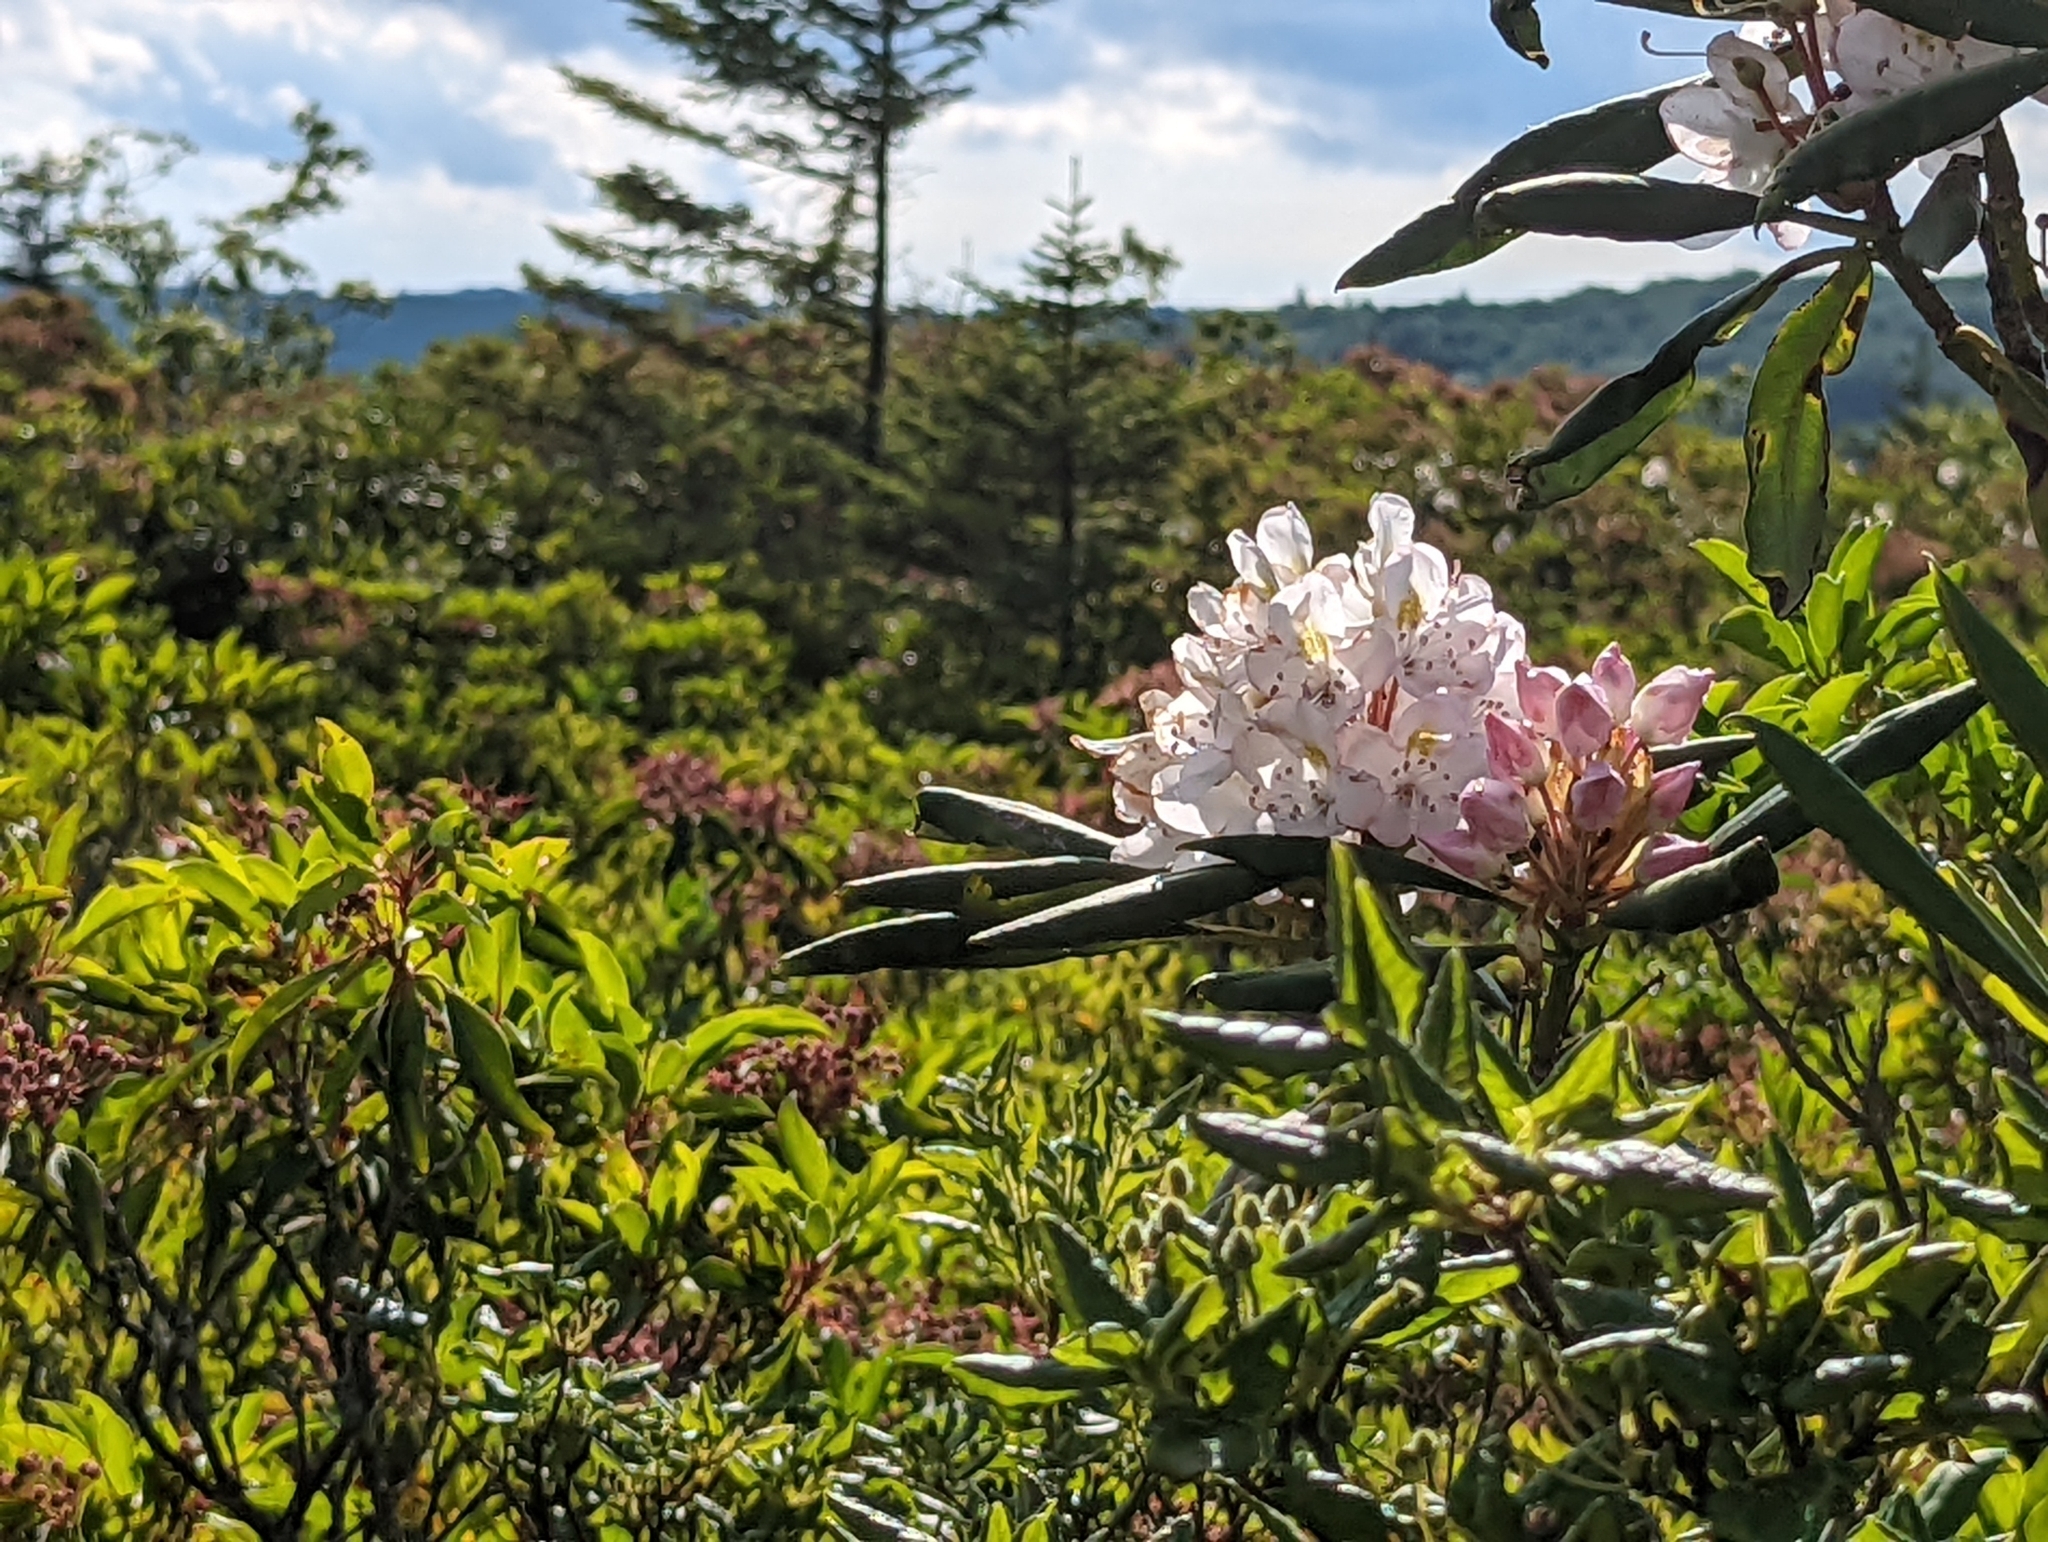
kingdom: Plantae
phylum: Tracheophyta
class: Magnoliopsida
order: Ericales
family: Ericaceae
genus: Rhododendron
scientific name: Rhododendron maximum
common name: Great rhododendron
